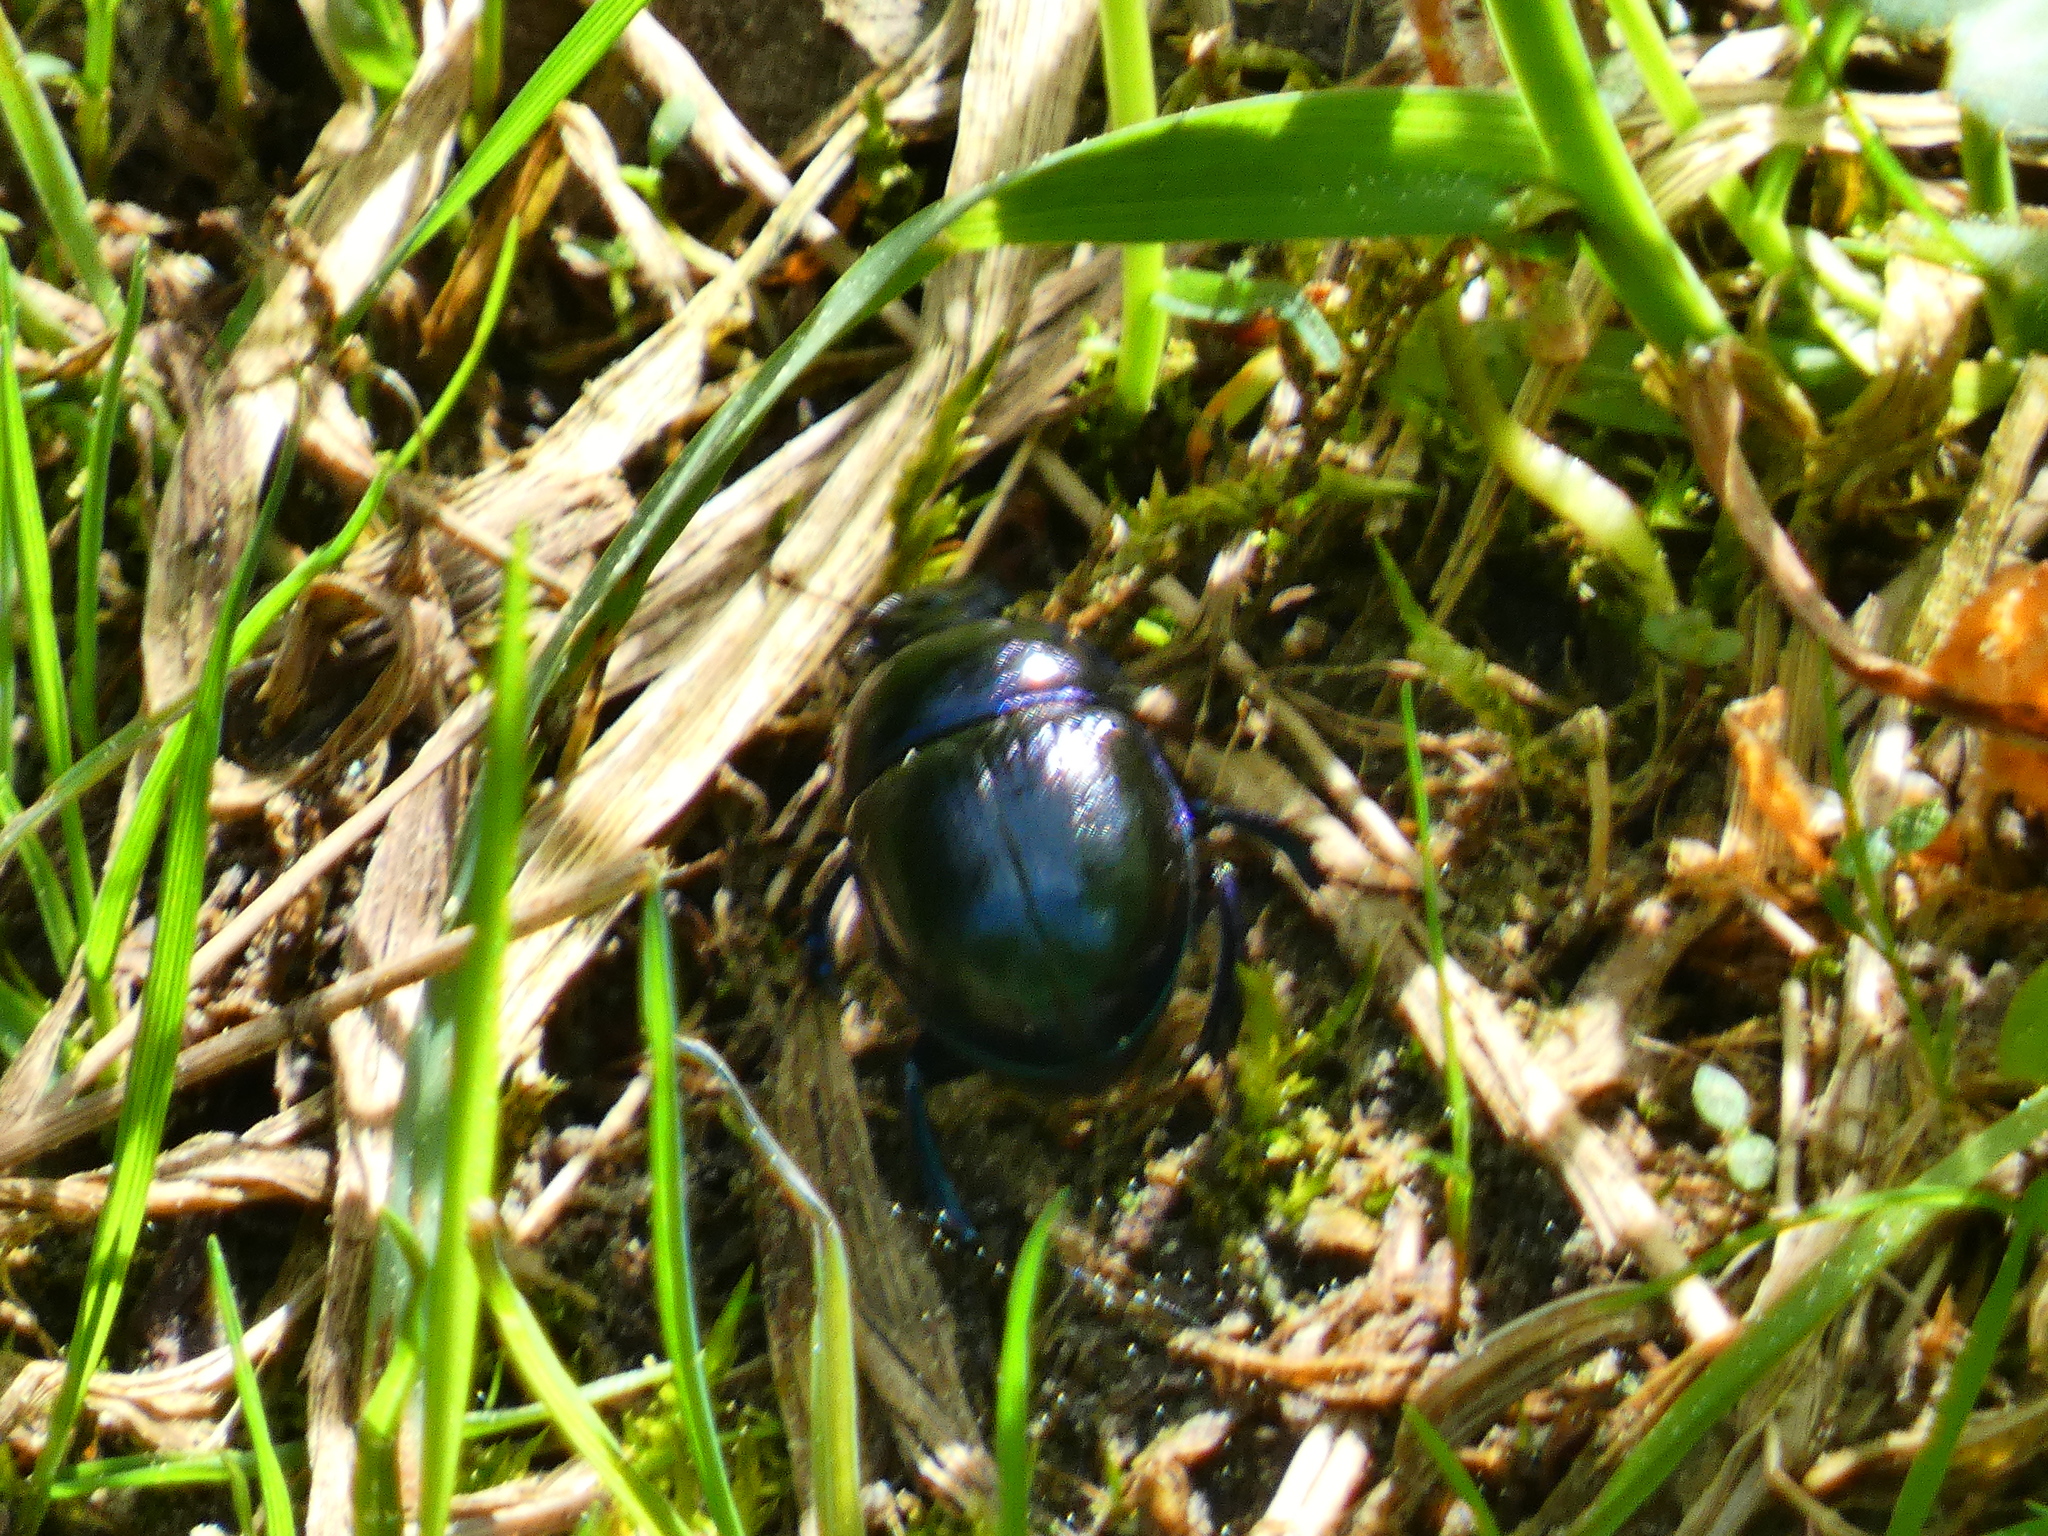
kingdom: Animalia
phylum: Arthropoda
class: Insecta
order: Coleoptera
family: Geotrupidae
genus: Anoplotrupes
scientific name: Anoplotrupes stercorosus
